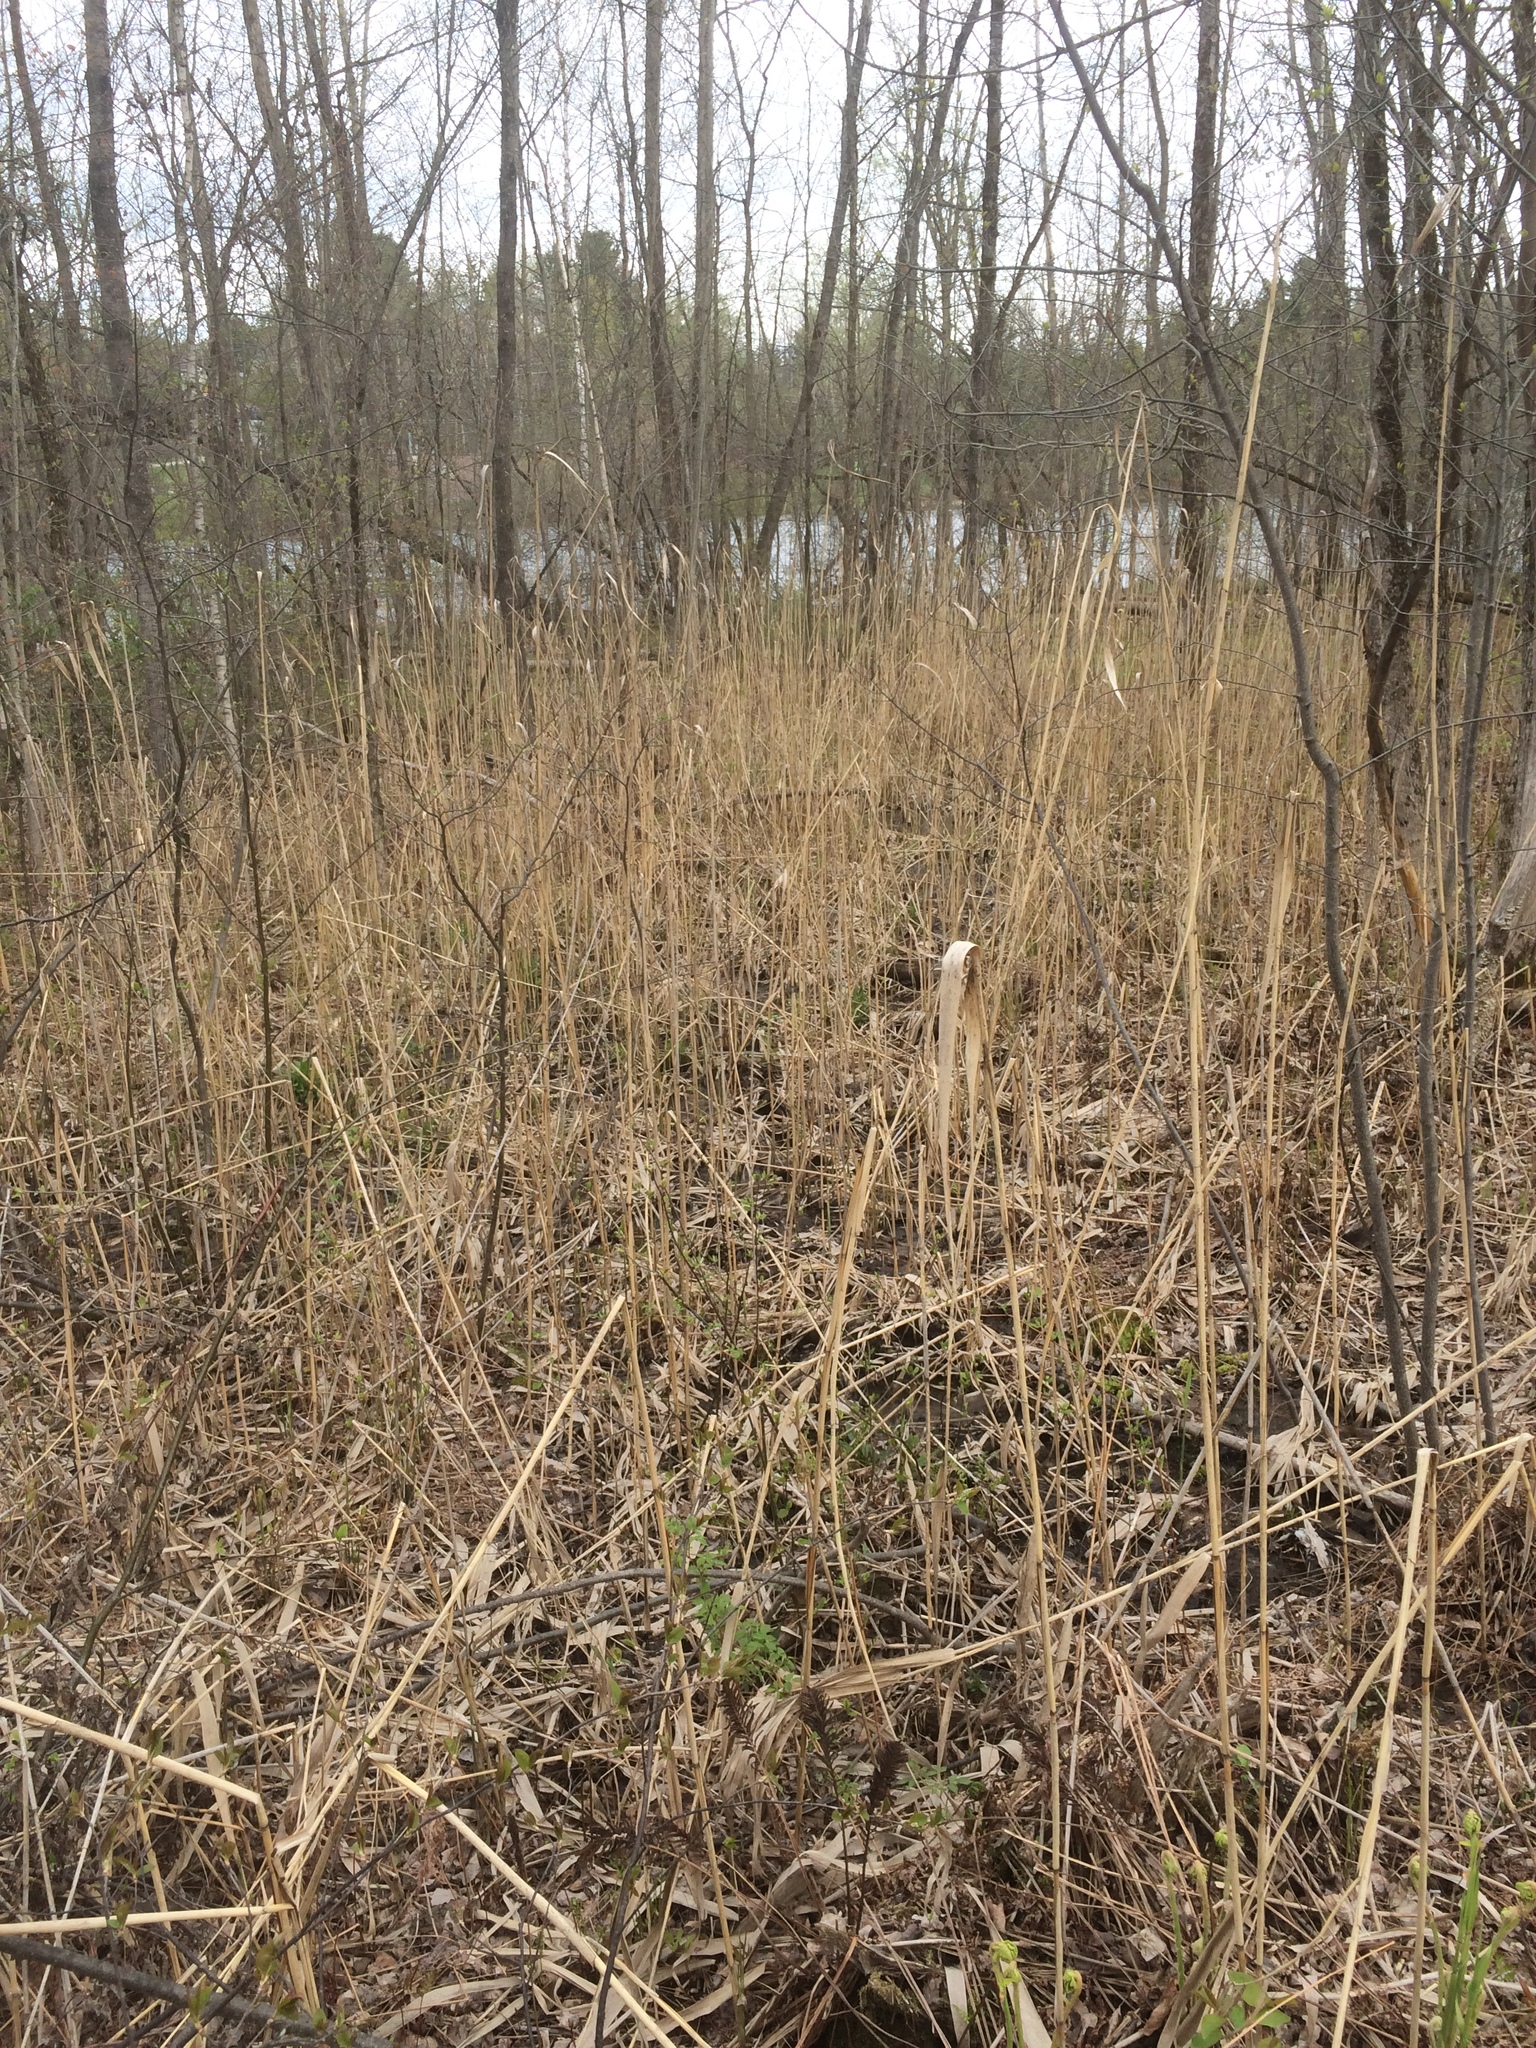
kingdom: Plantae
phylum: Tracheophyta
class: Liliopsida
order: Poales
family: Poaceae
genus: Phragmites
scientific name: Phragmites australis
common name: Common reed
